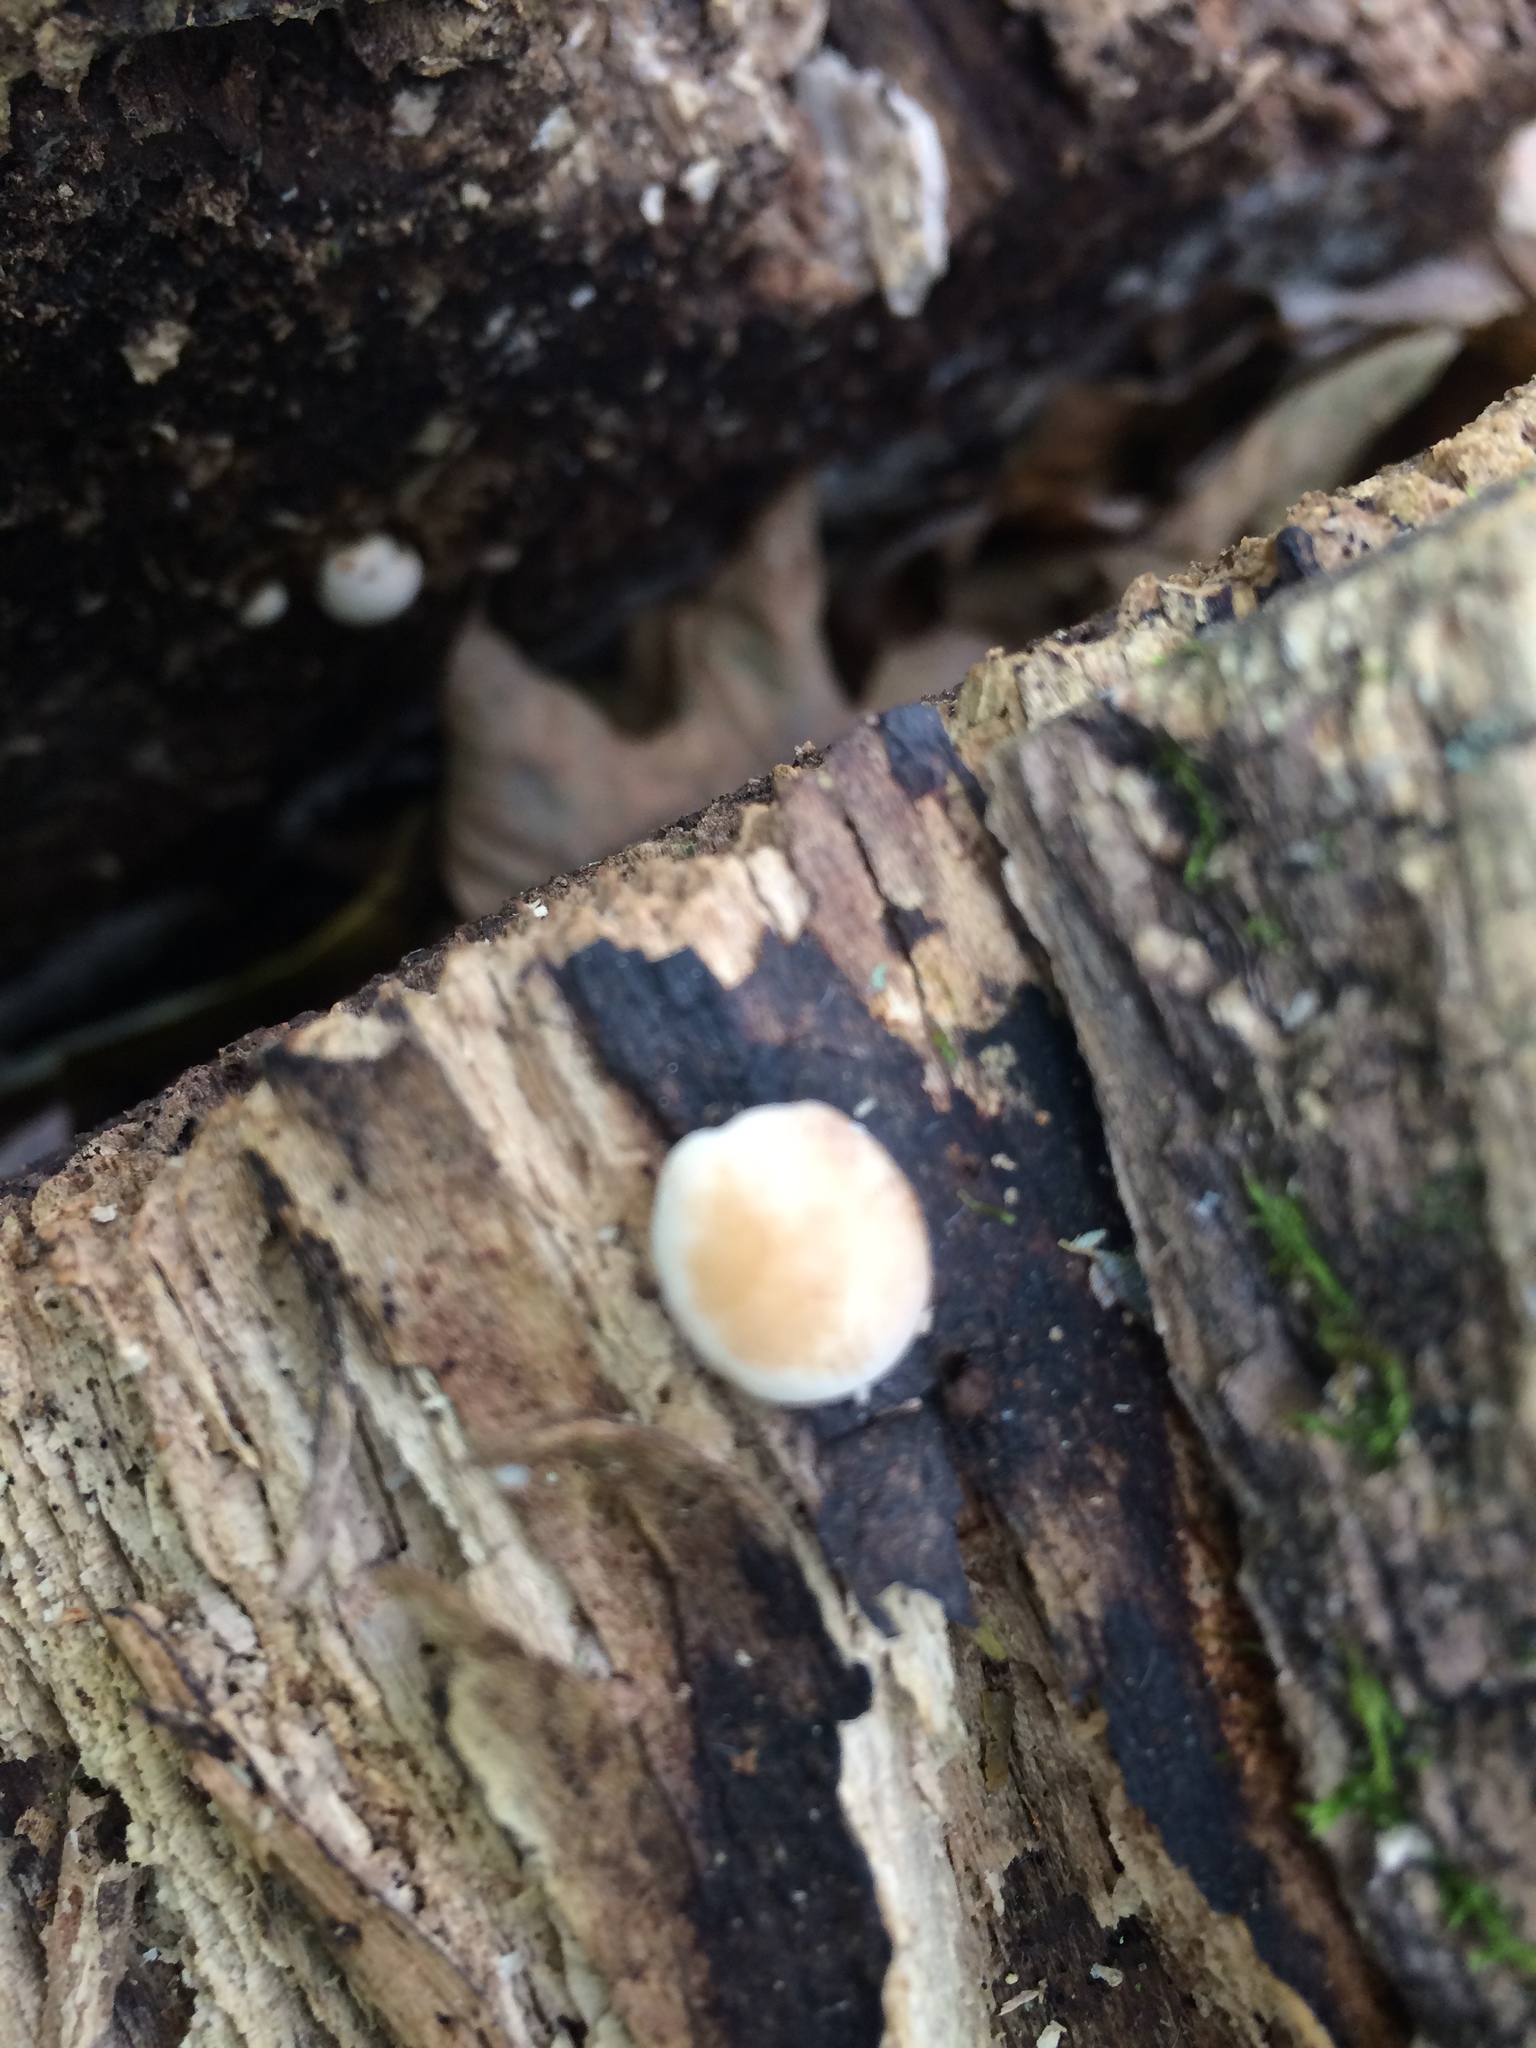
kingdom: Fungi
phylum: Basidiomycota
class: Agaricomycetes
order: Polyporales
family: Ischnodermataceae
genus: Ischnoderma
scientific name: Ischnoderma resinosum
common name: Resinous polypore
